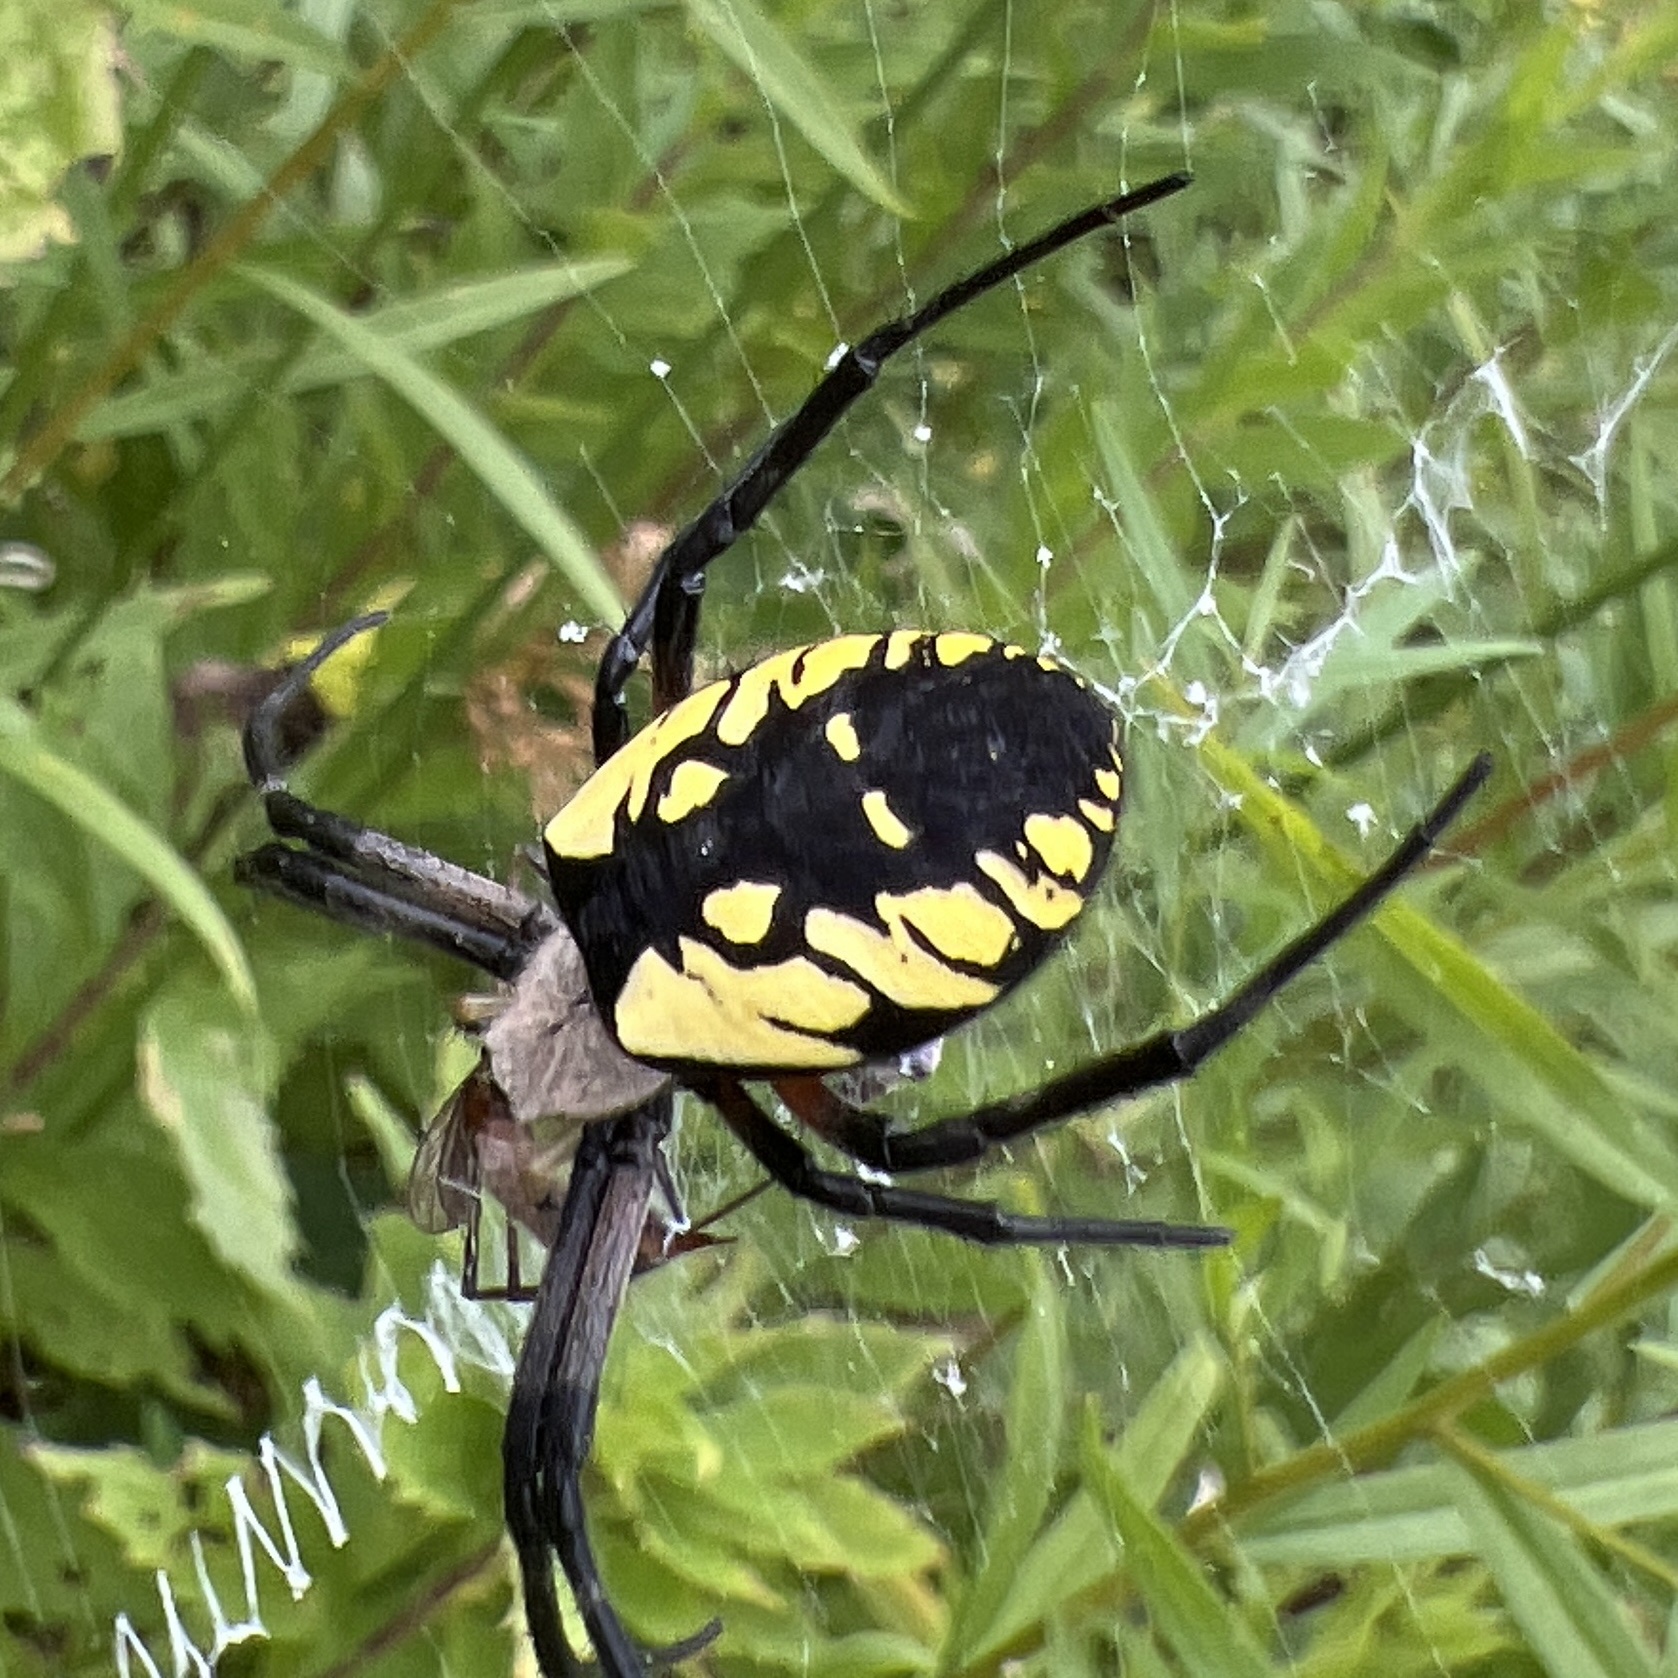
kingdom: Animalia
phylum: Arthropoda
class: Arachnida
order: Araneae
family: Araneidae
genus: Argiope
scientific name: Argiope aurantia
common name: Orb weavers
